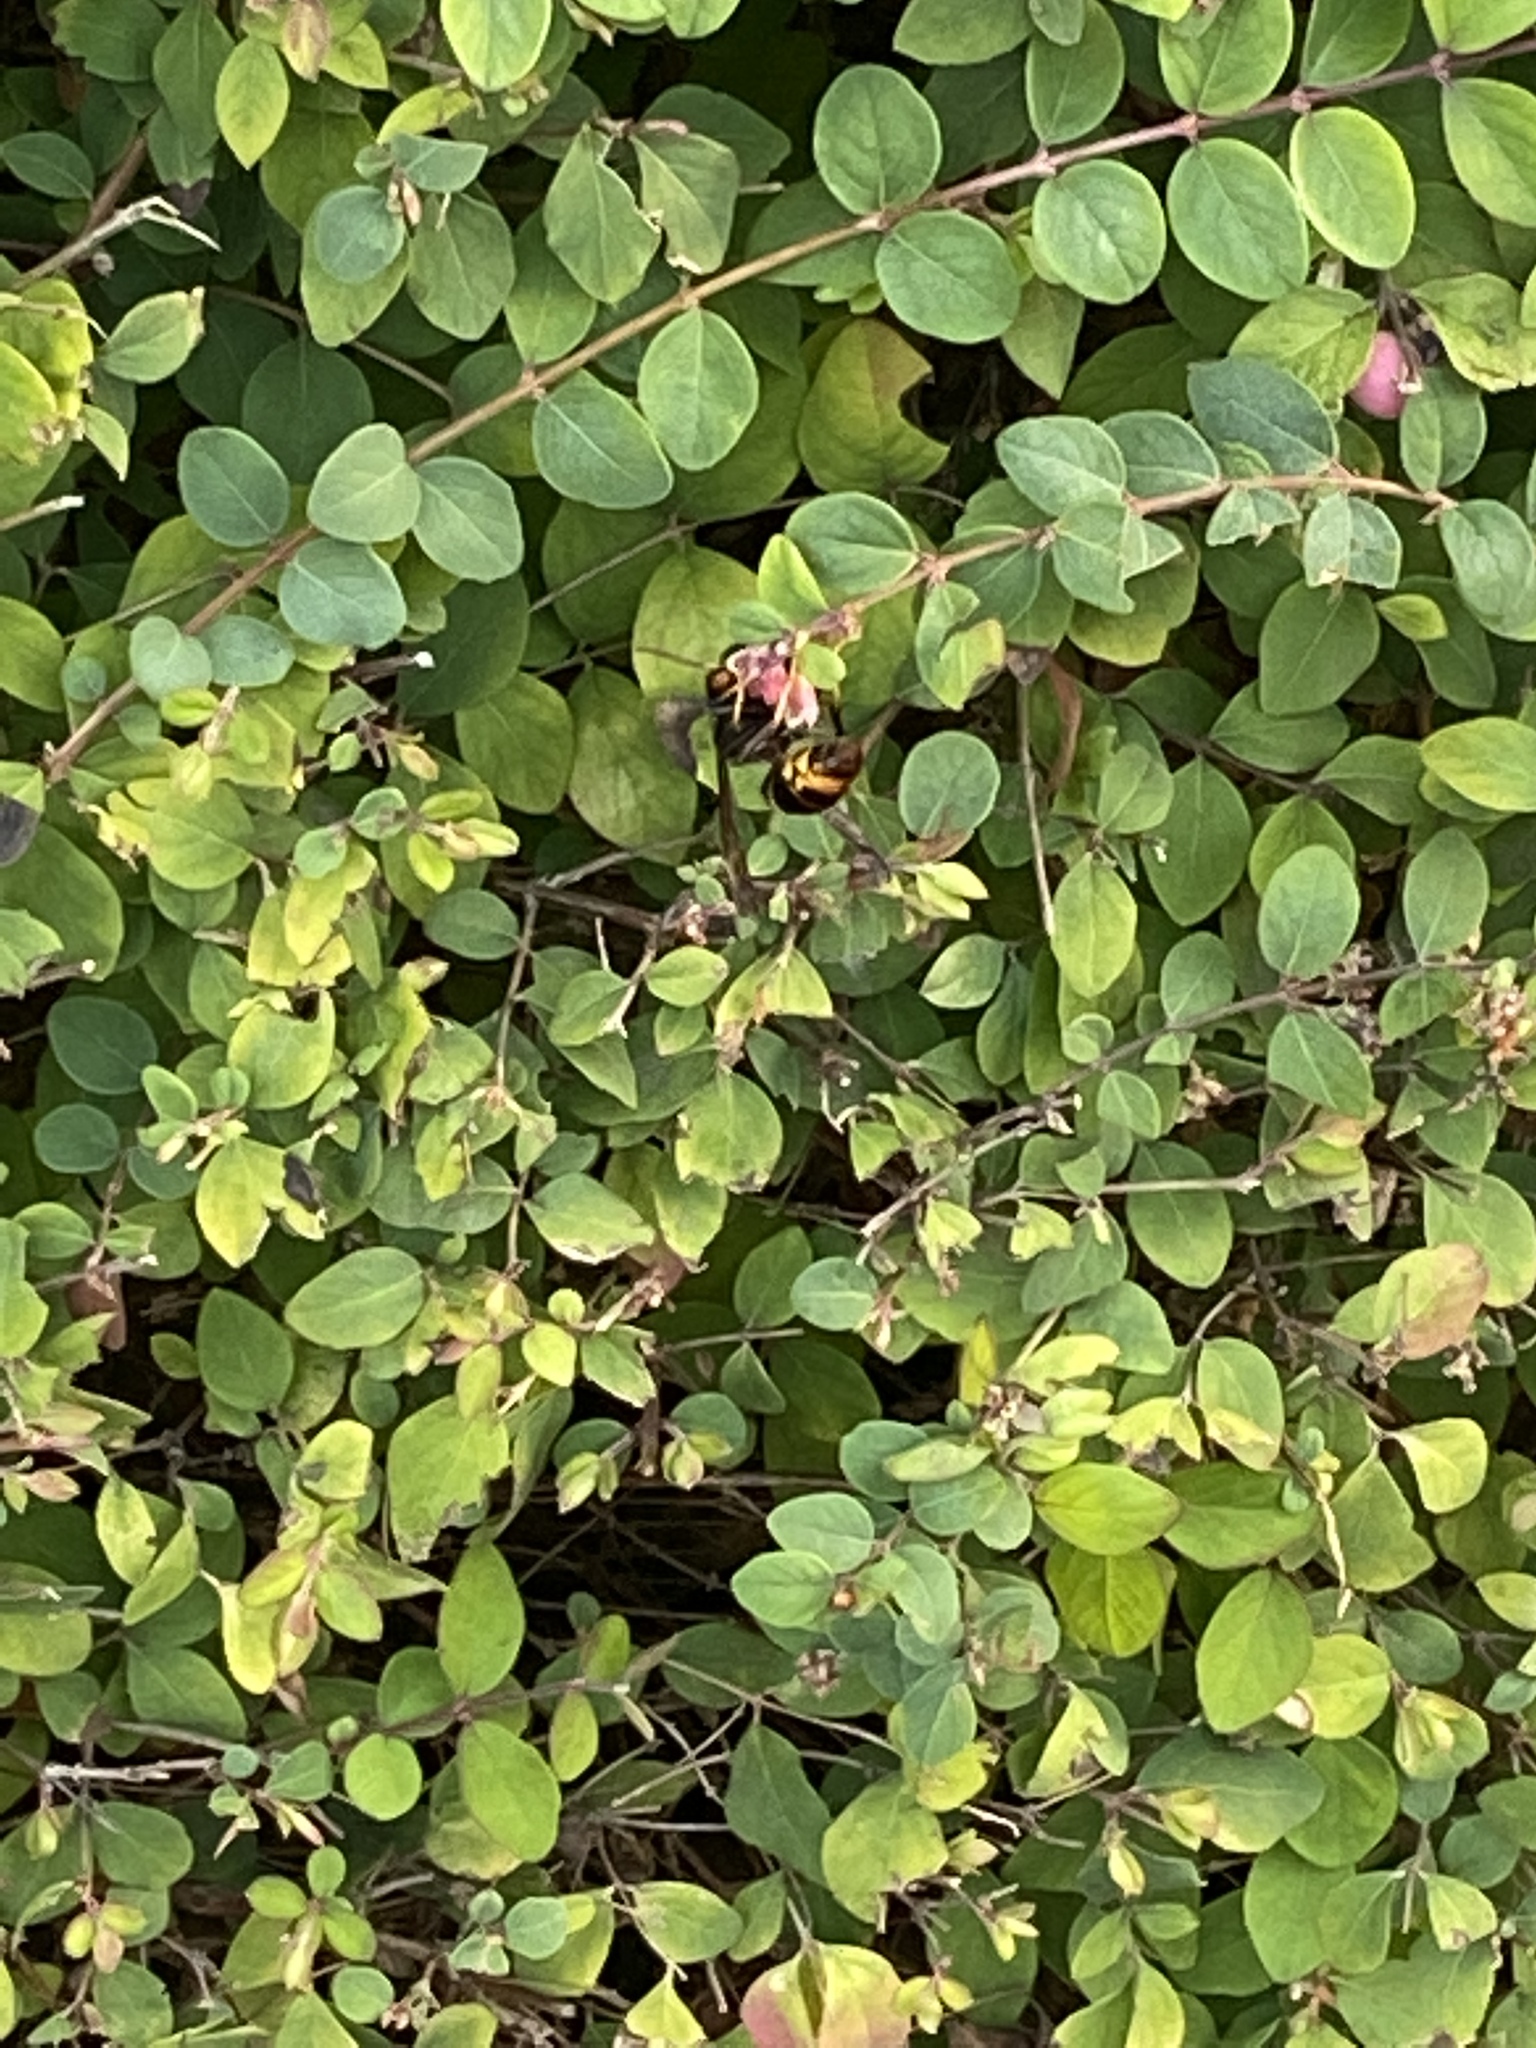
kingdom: Animalia
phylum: Arthropoda
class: Insecta
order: Hymenoptera
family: Vespidae
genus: Vespa
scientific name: Vespa velutina
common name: Asian hornet
